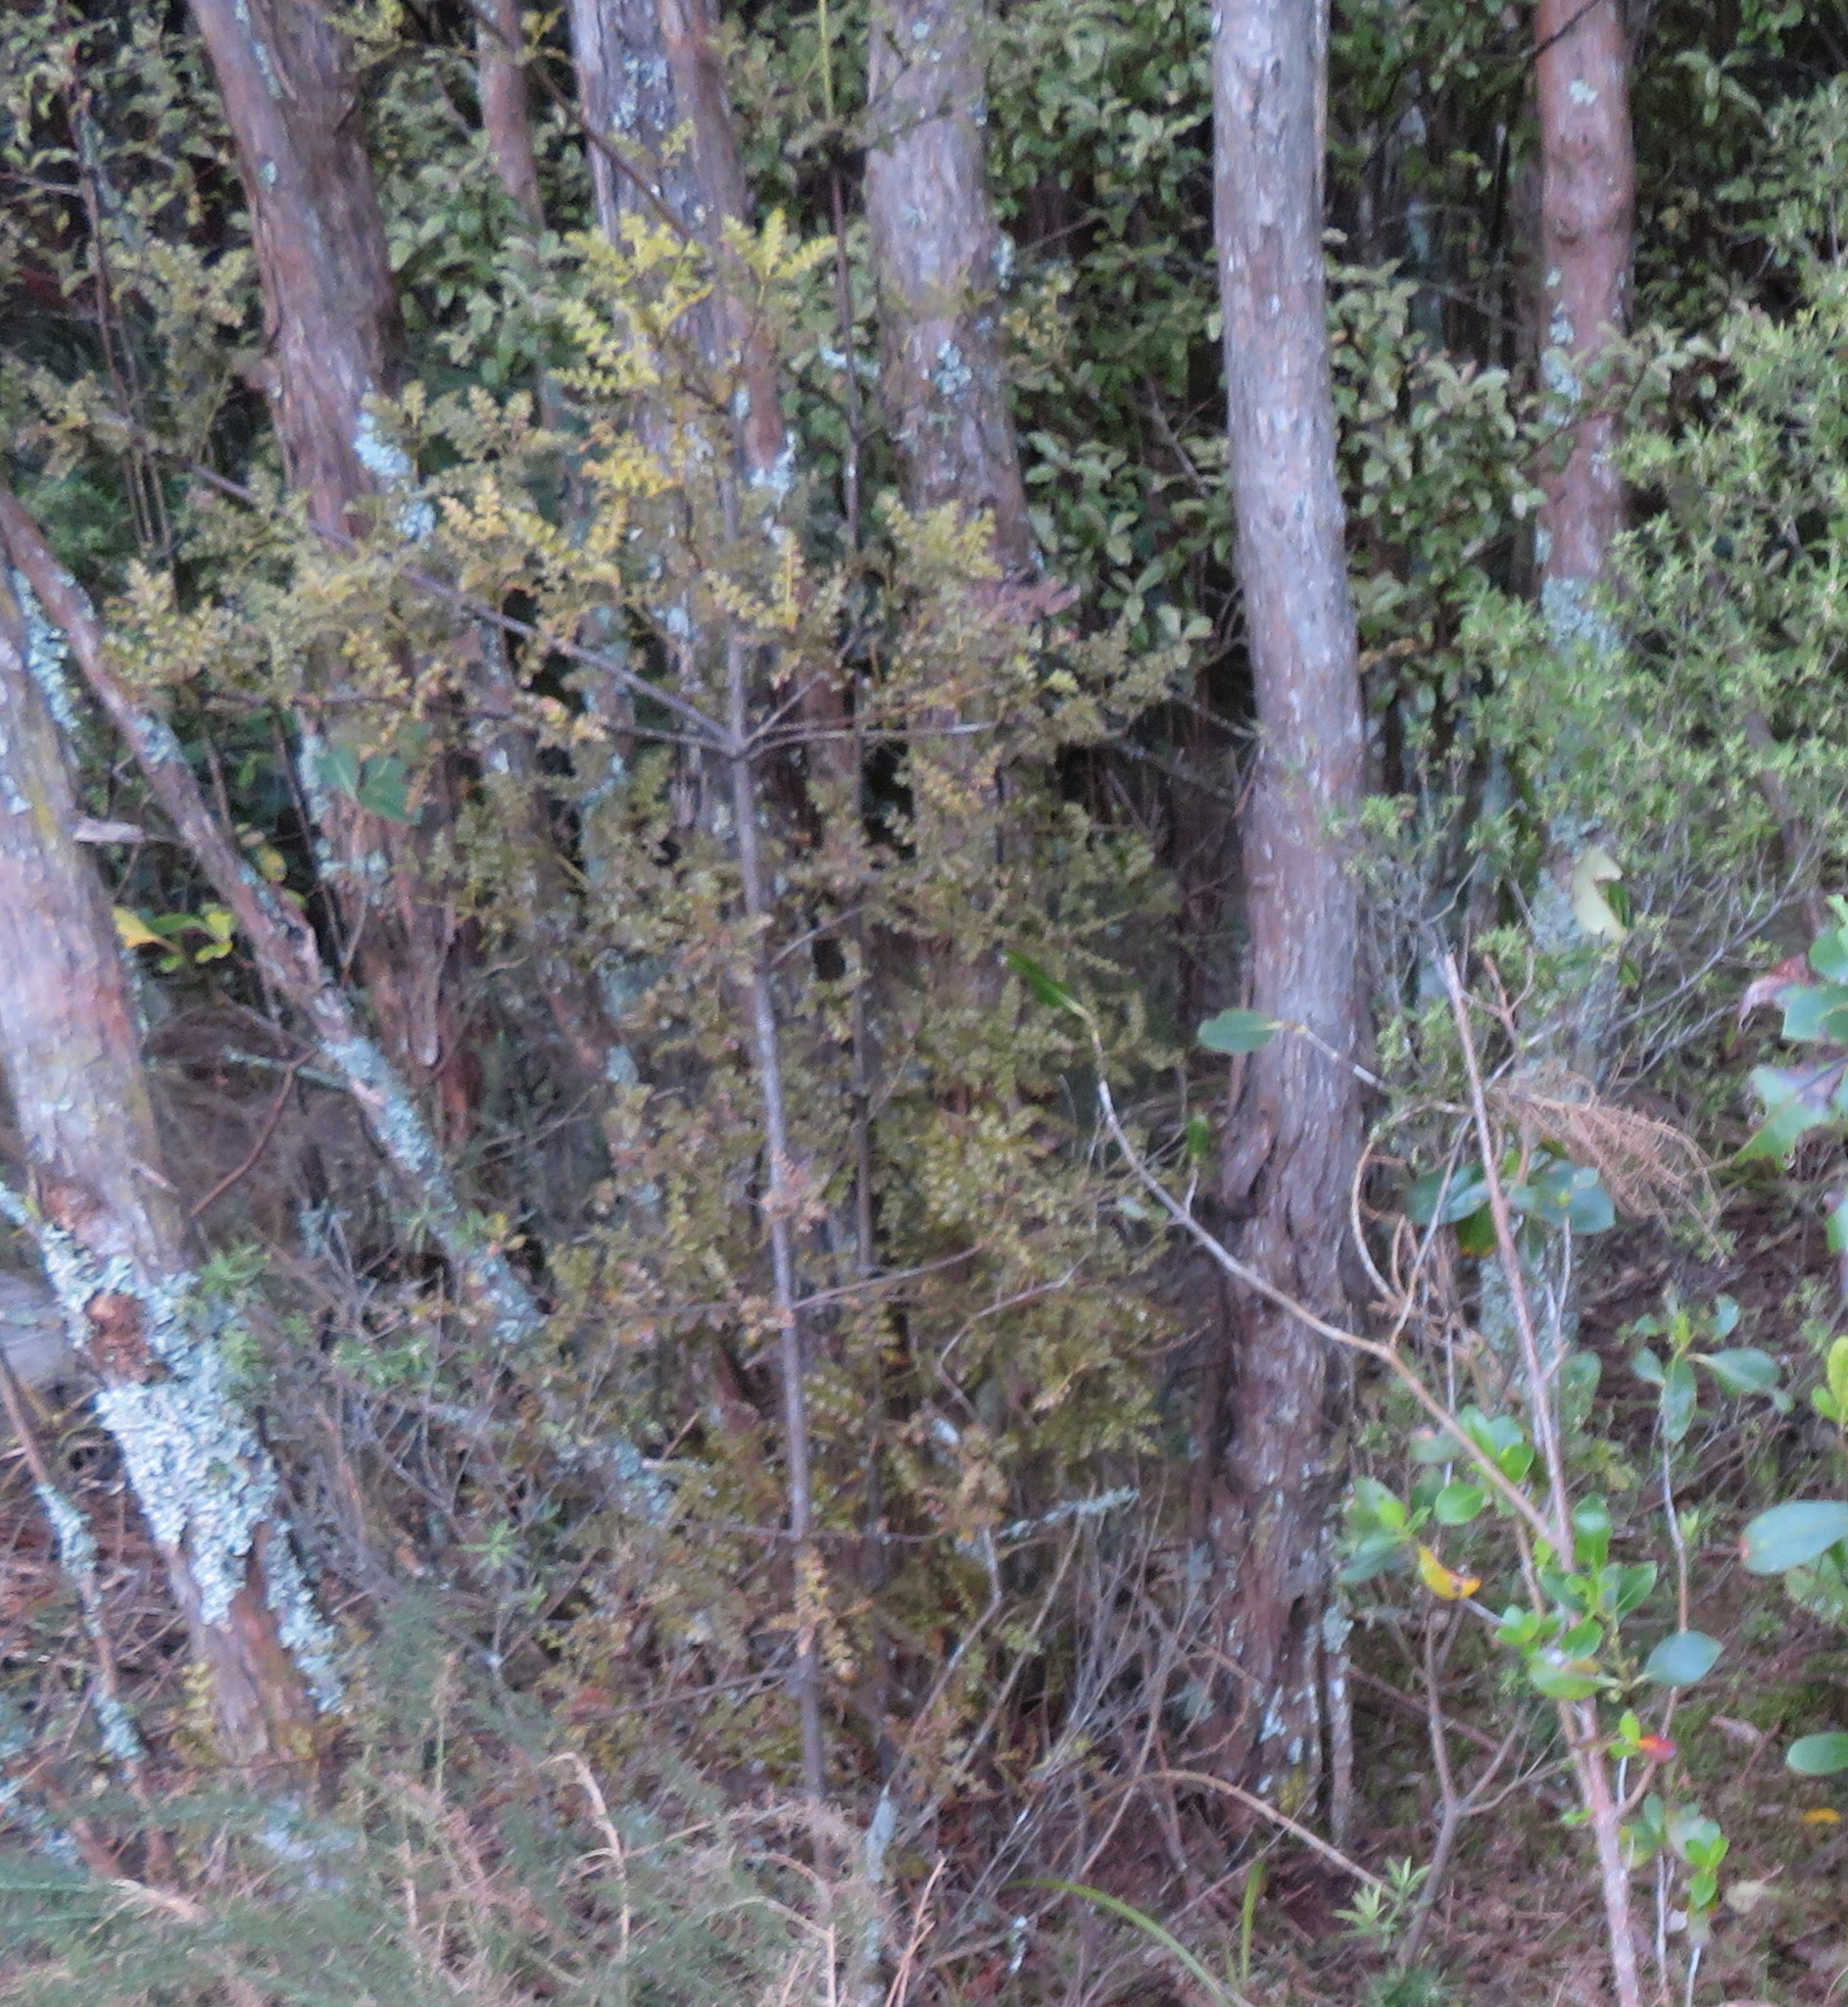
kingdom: Plantae
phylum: Tracheophyta
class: Pinopsida
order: Pinales
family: Phyllocladaceae
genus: Phyllocladus
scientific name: Phyllocladus trichomanoides
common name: Celery pine
